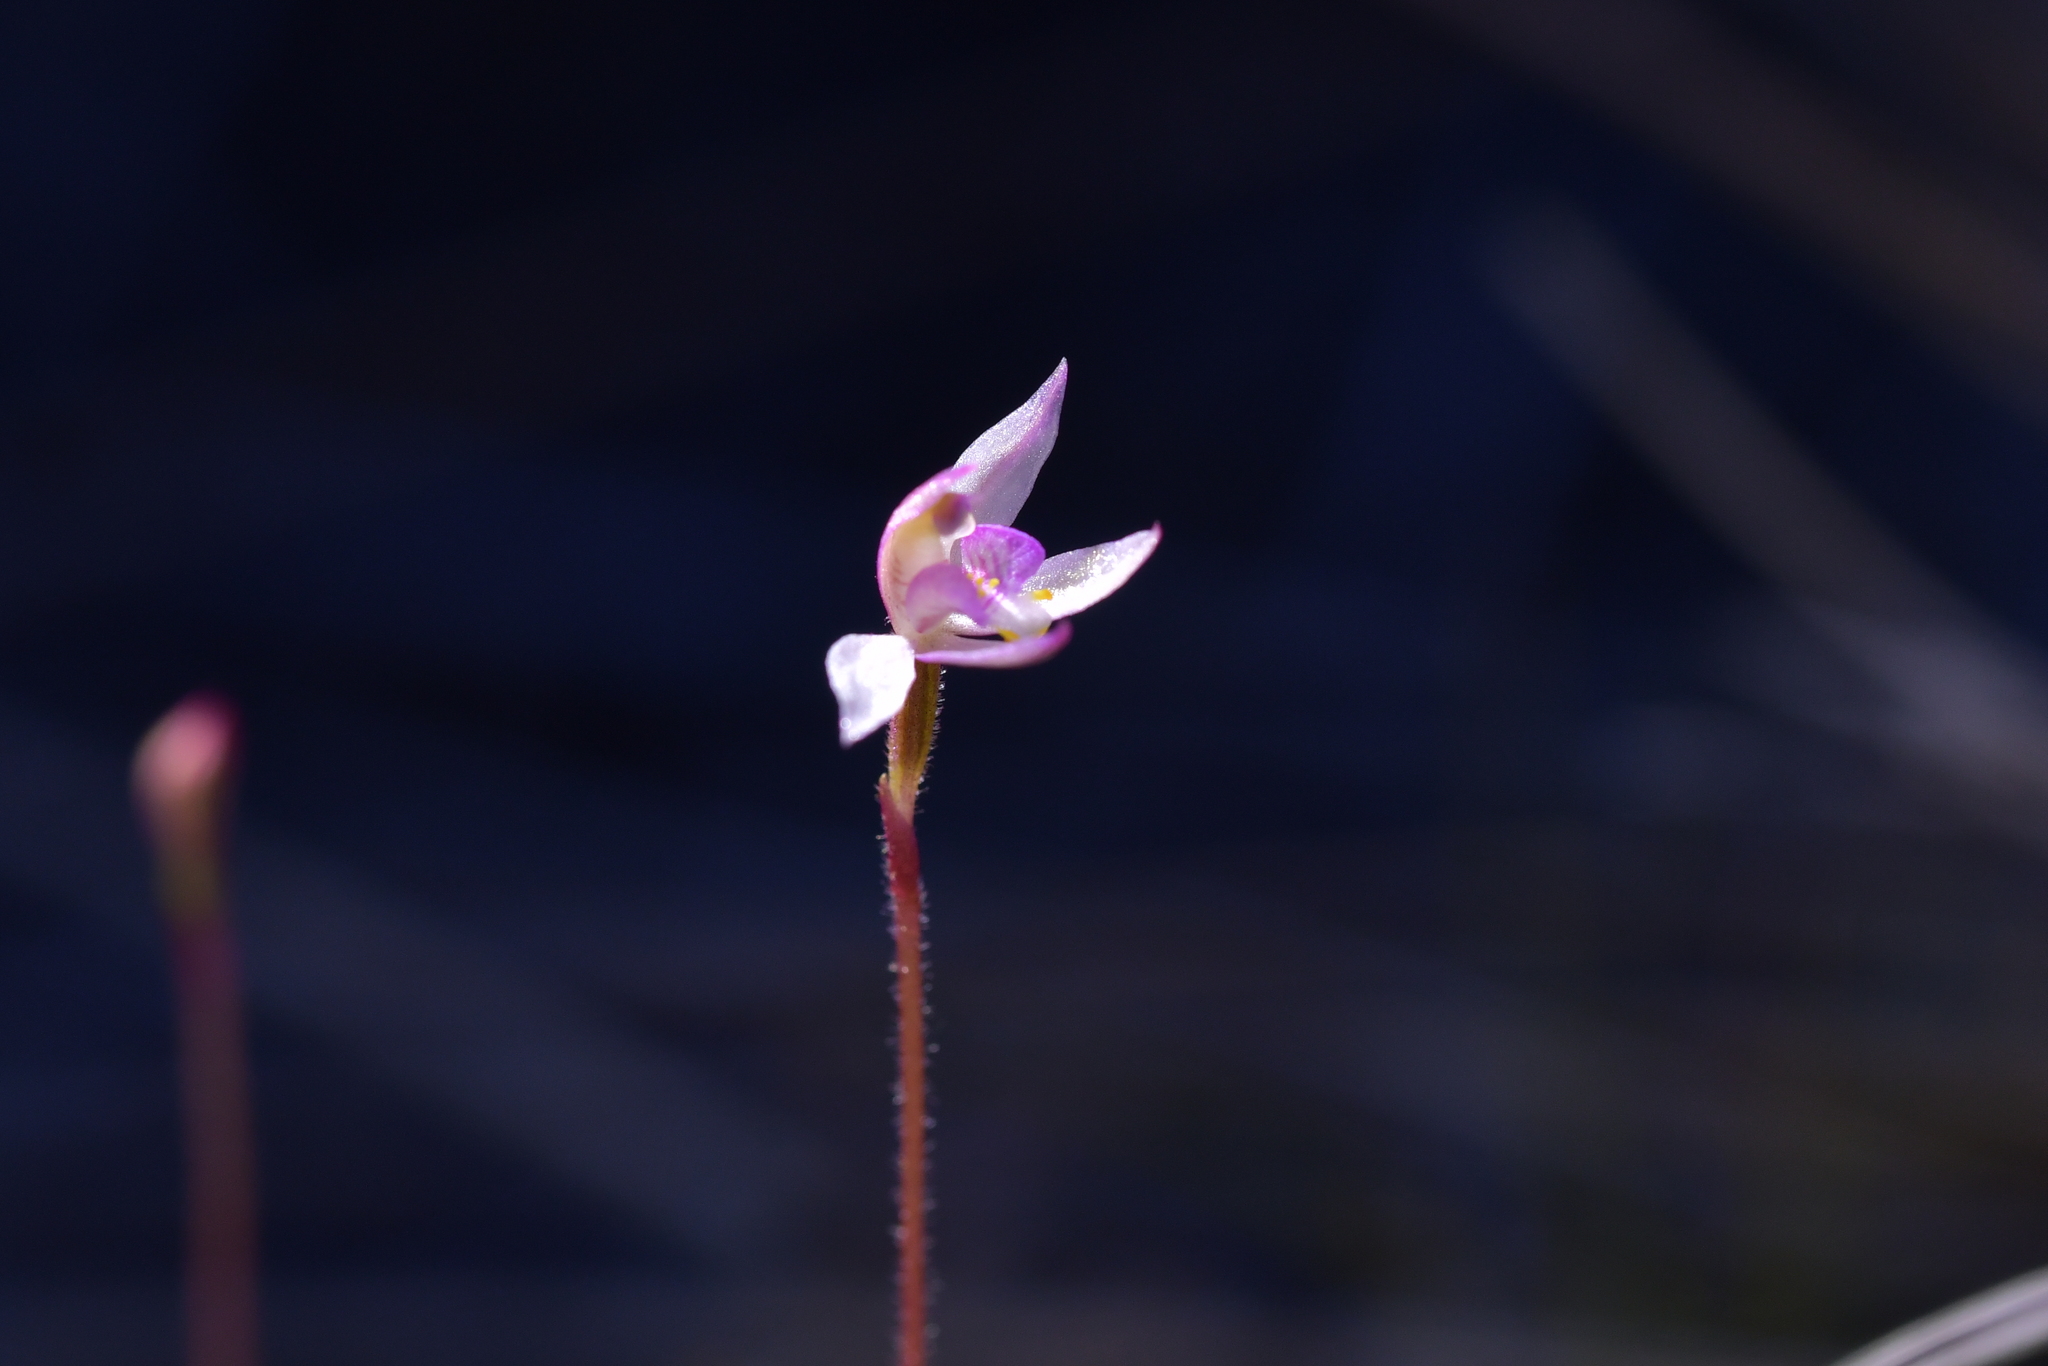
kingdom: Plantae
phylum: Tracheophyta
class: Liliopsida
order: Asparagales
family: Orchidaceae
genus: Caladenia
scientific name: Caladenia alata
